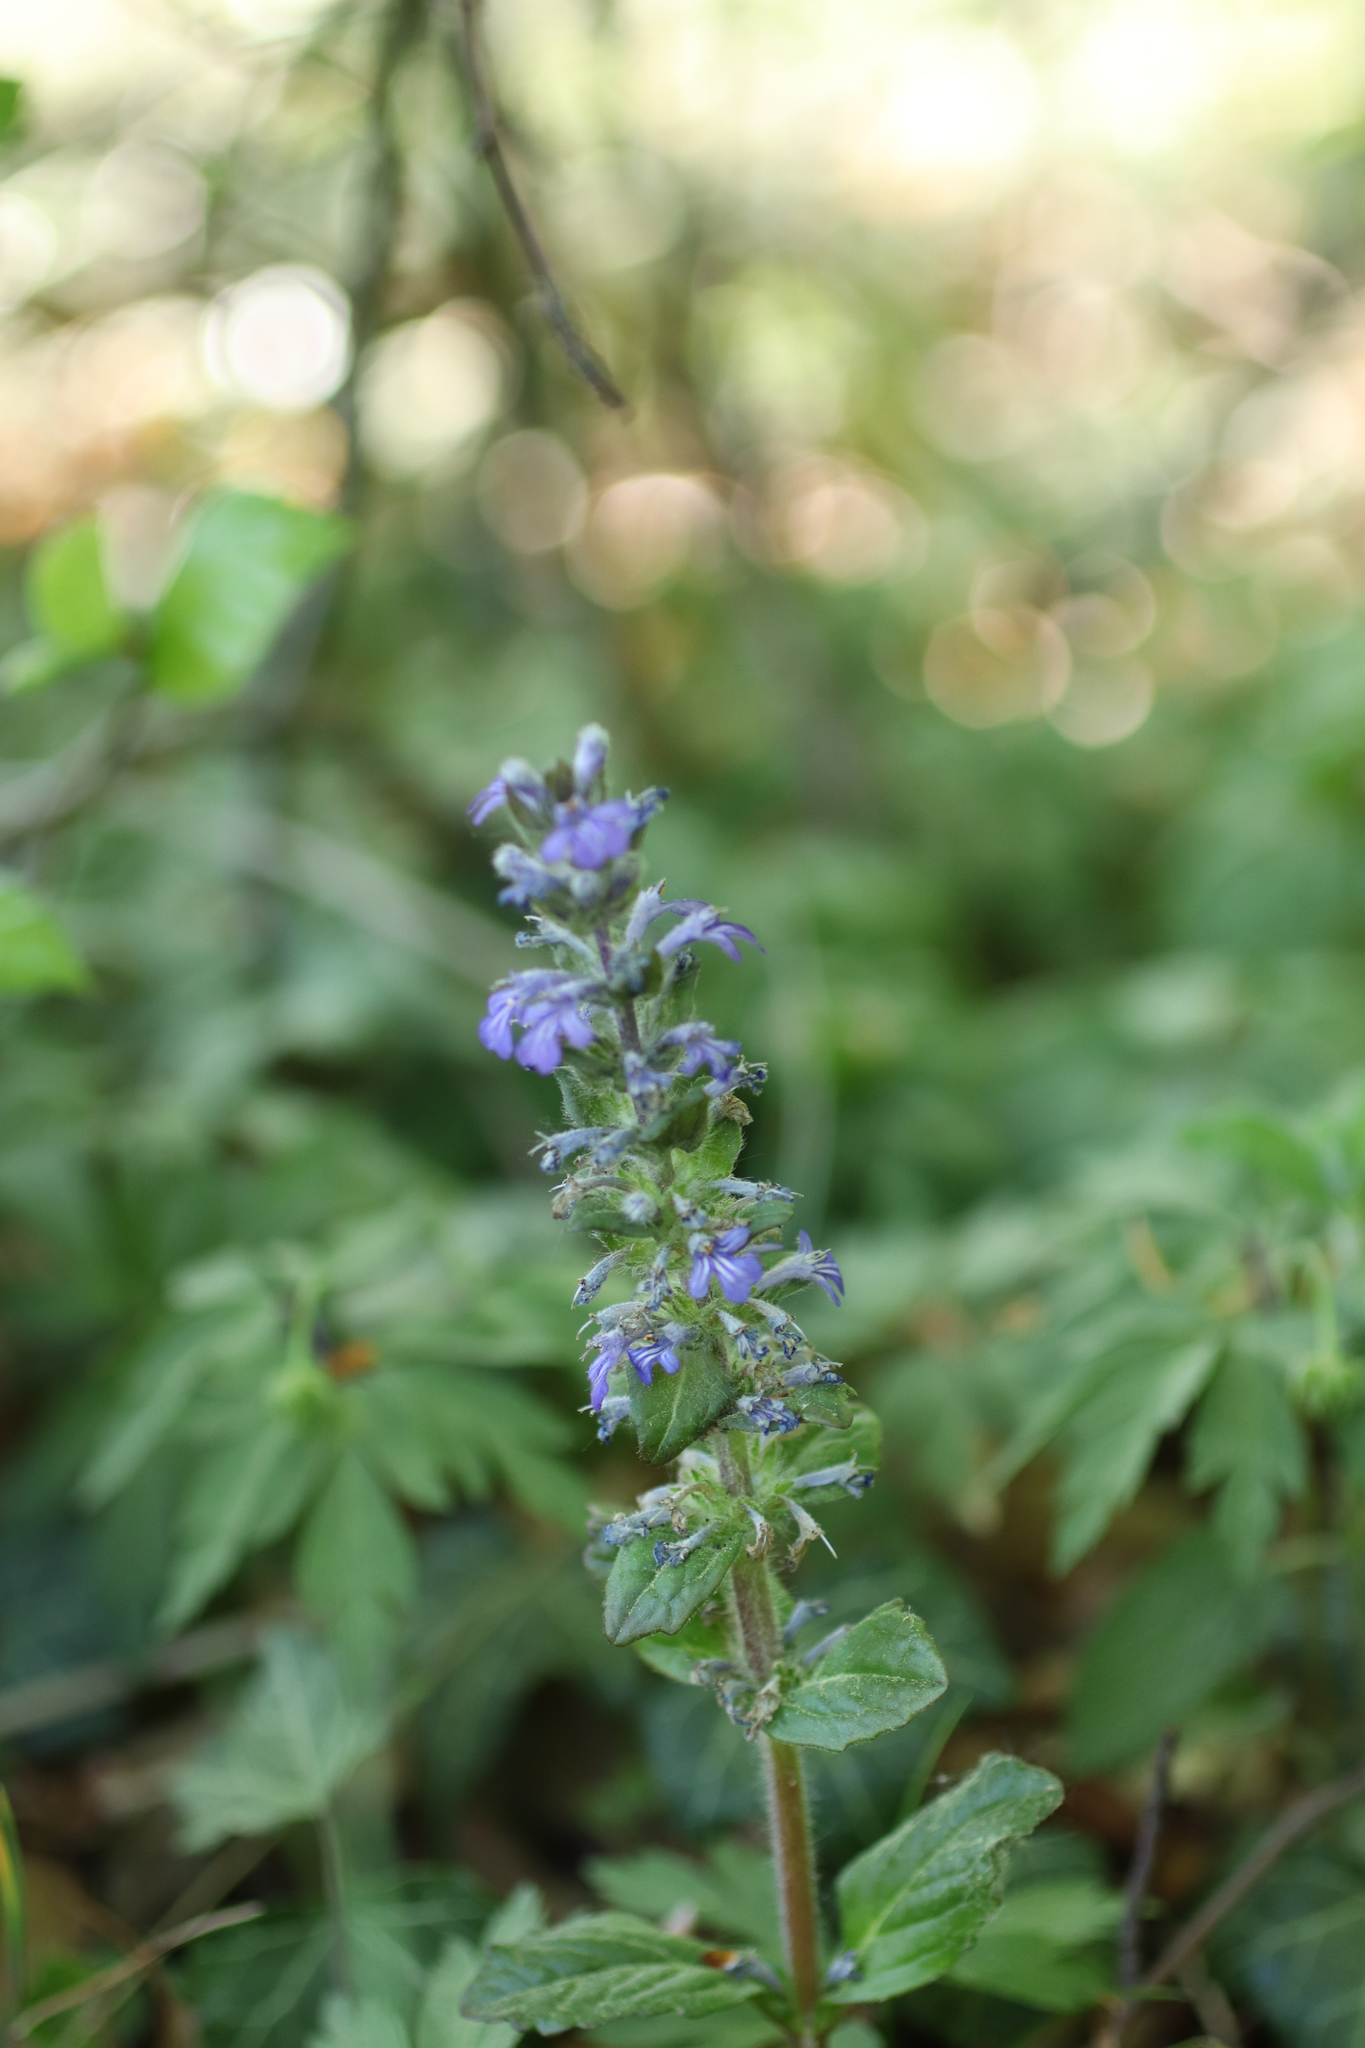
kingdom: Plantae
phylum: Tracheophyta
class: Magnoliopsida
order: Lamiales
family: Lamiaceae
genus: Ajuga
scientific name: Ajuga reptans
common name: Bugle
